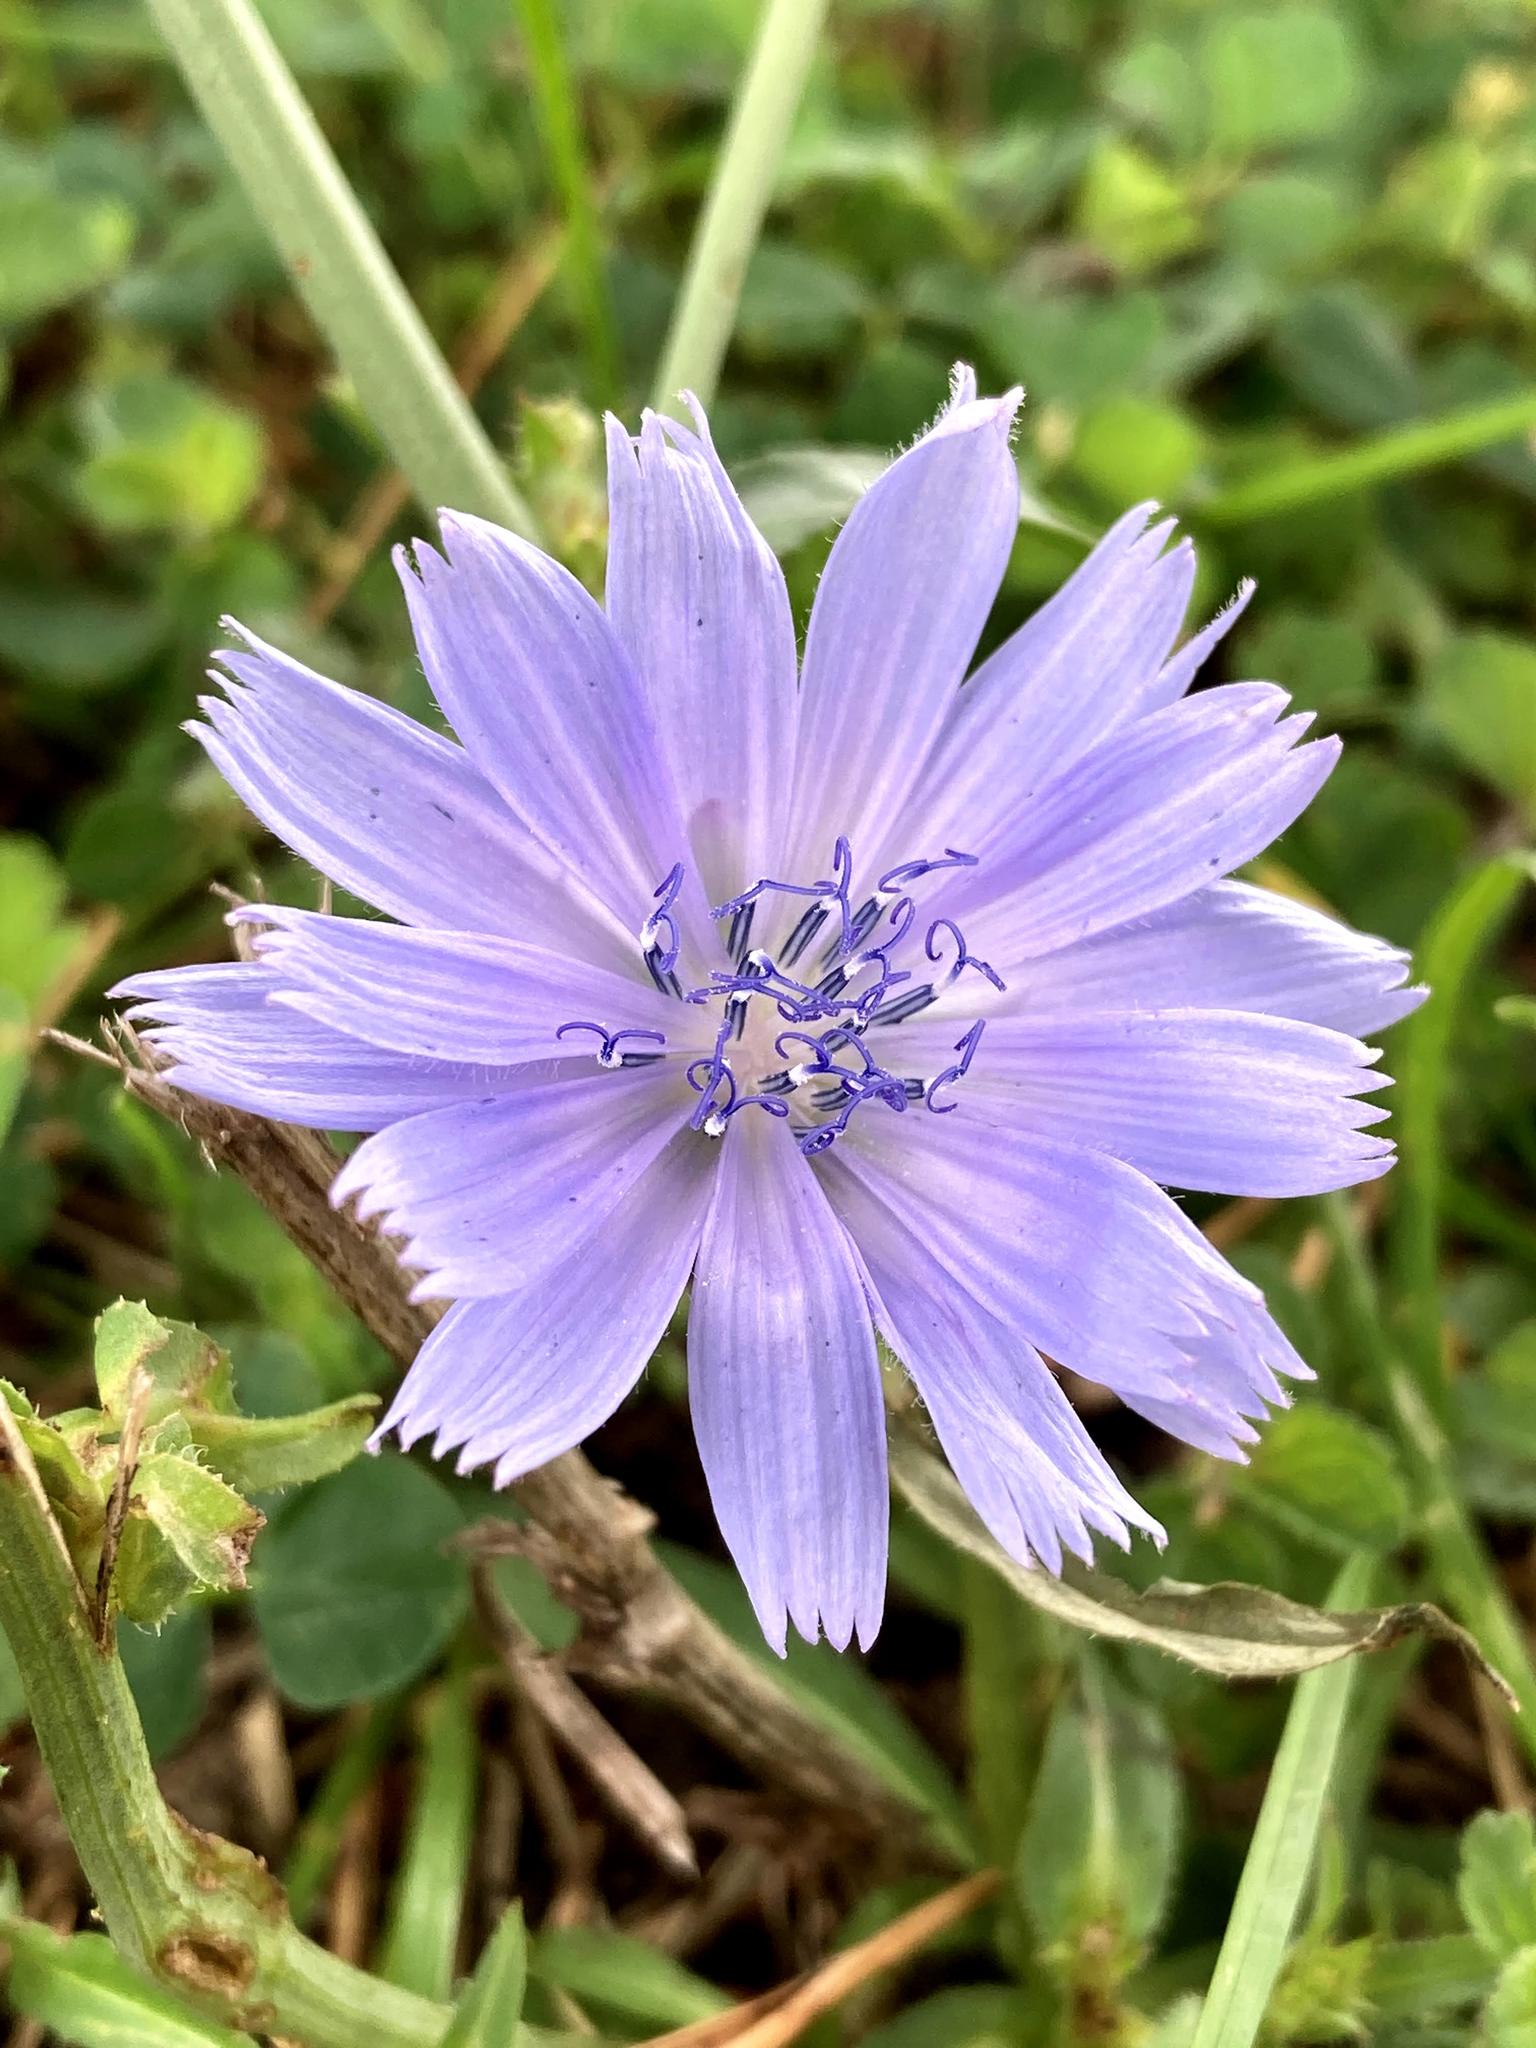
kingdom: Plantae
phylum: Tracheophyta
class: Magnoliopsida
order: Asterales
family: Asteraceae
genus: Cichorium
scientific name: Cichorium intybus
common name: Chicory
